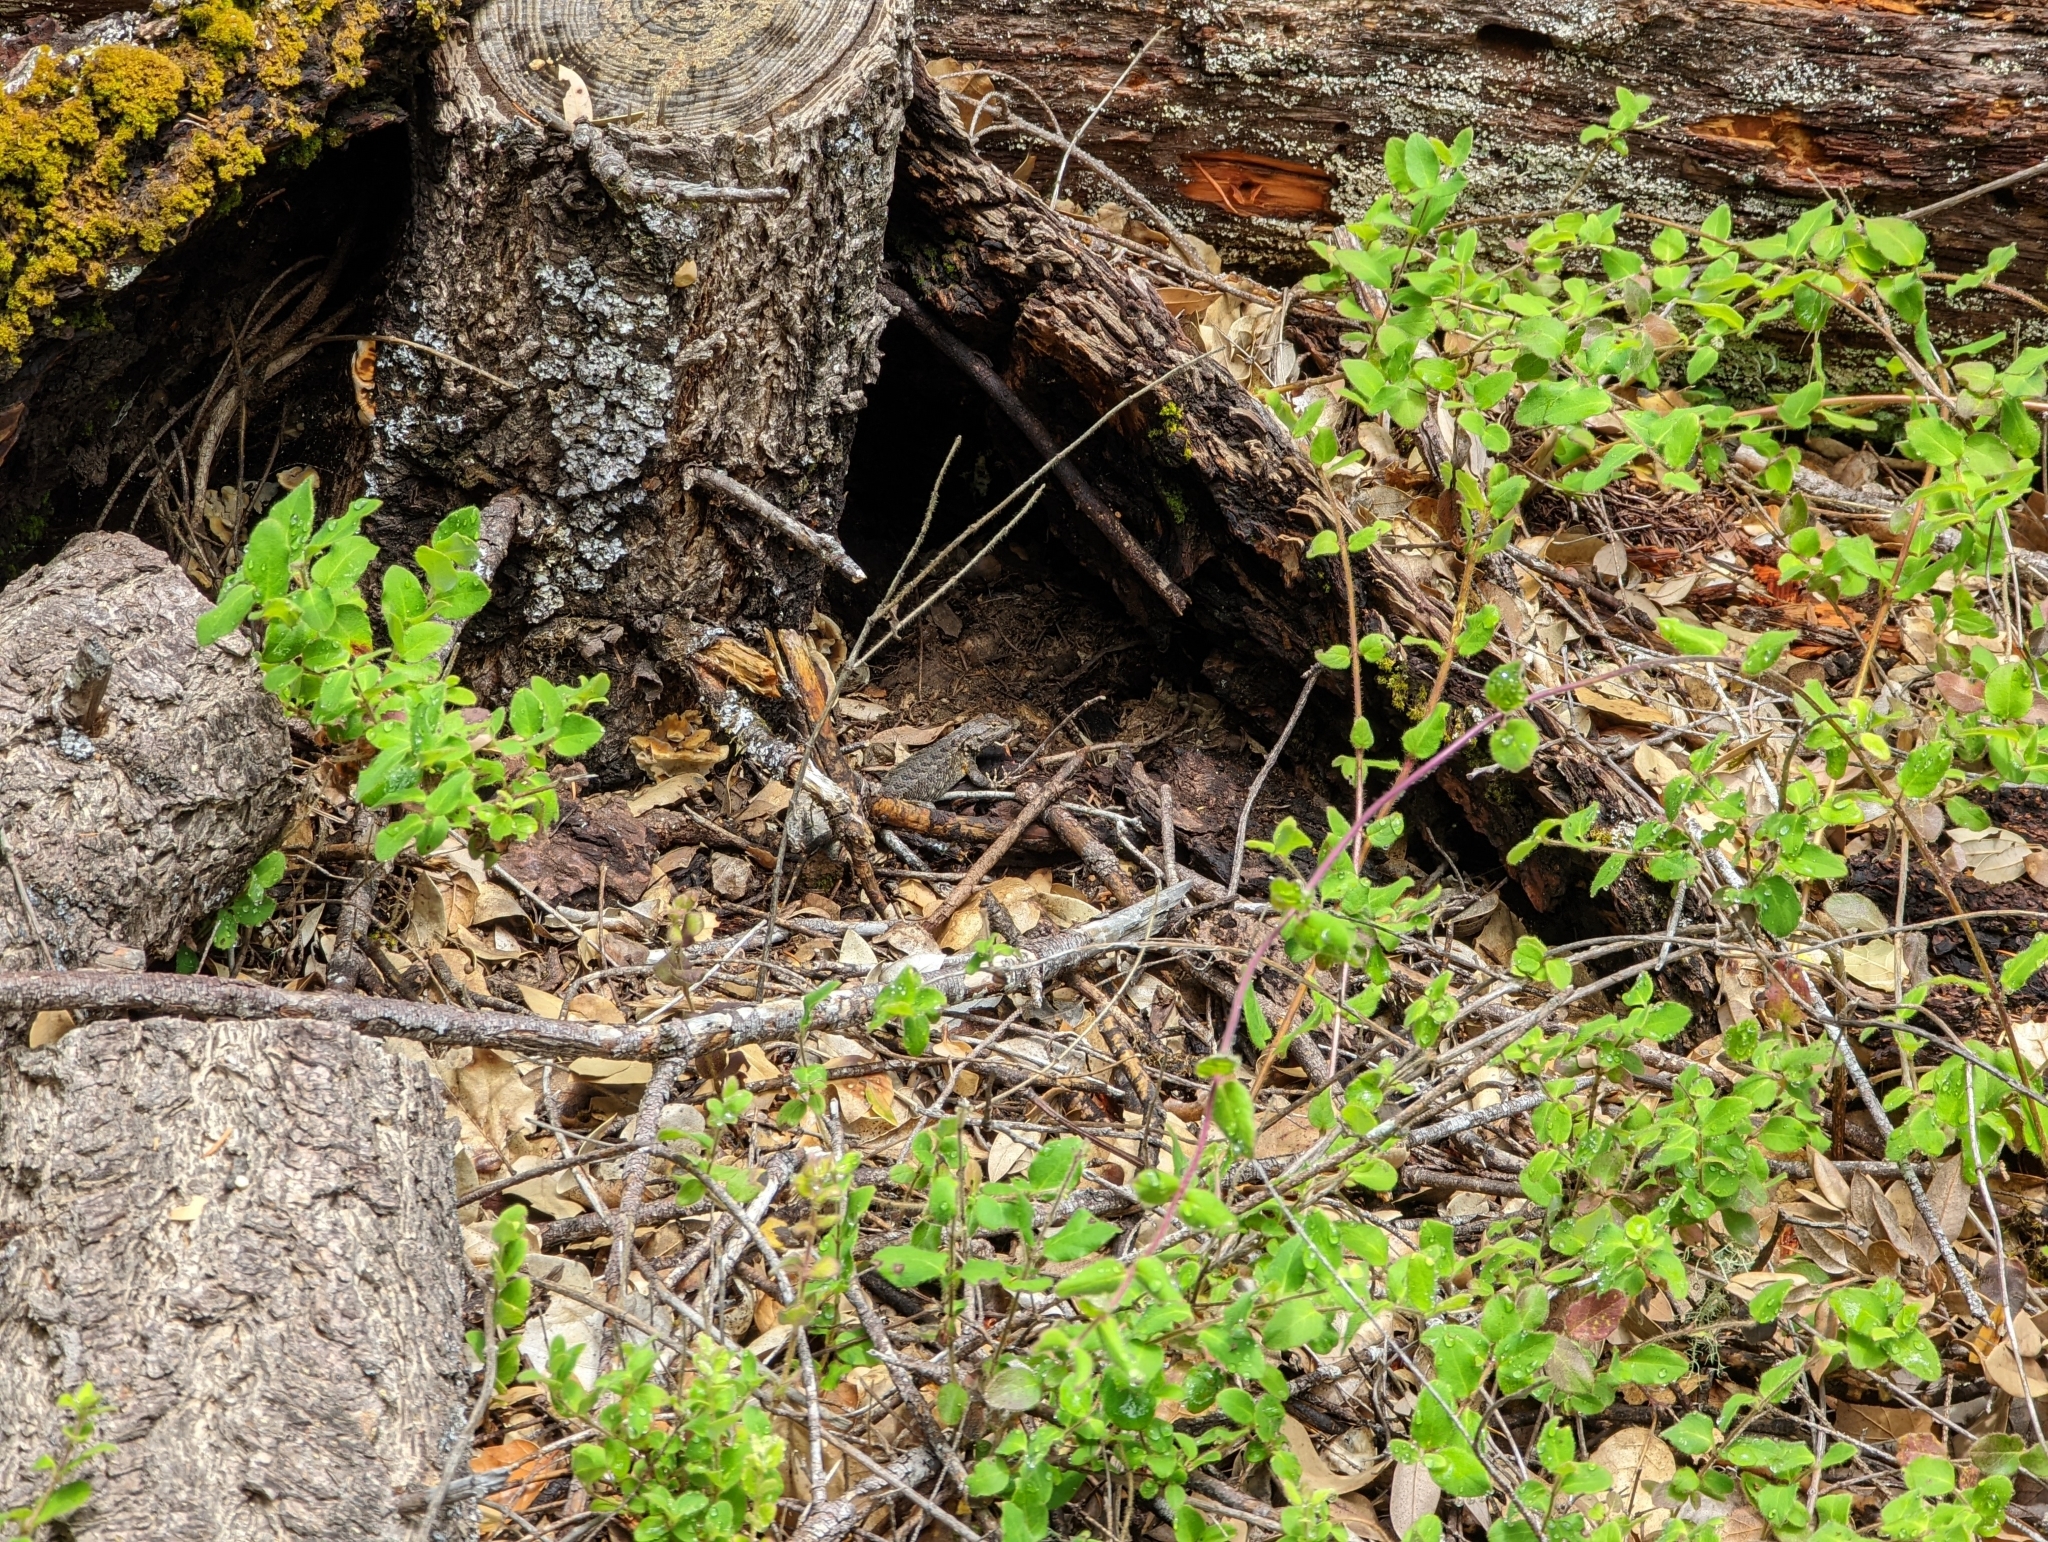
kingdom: Animalia
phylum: Chordata
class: Squamata
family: Phrynosomatidae
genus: Sceloporus
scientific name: Sceloporus occidentalis
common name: Western fence lizard
